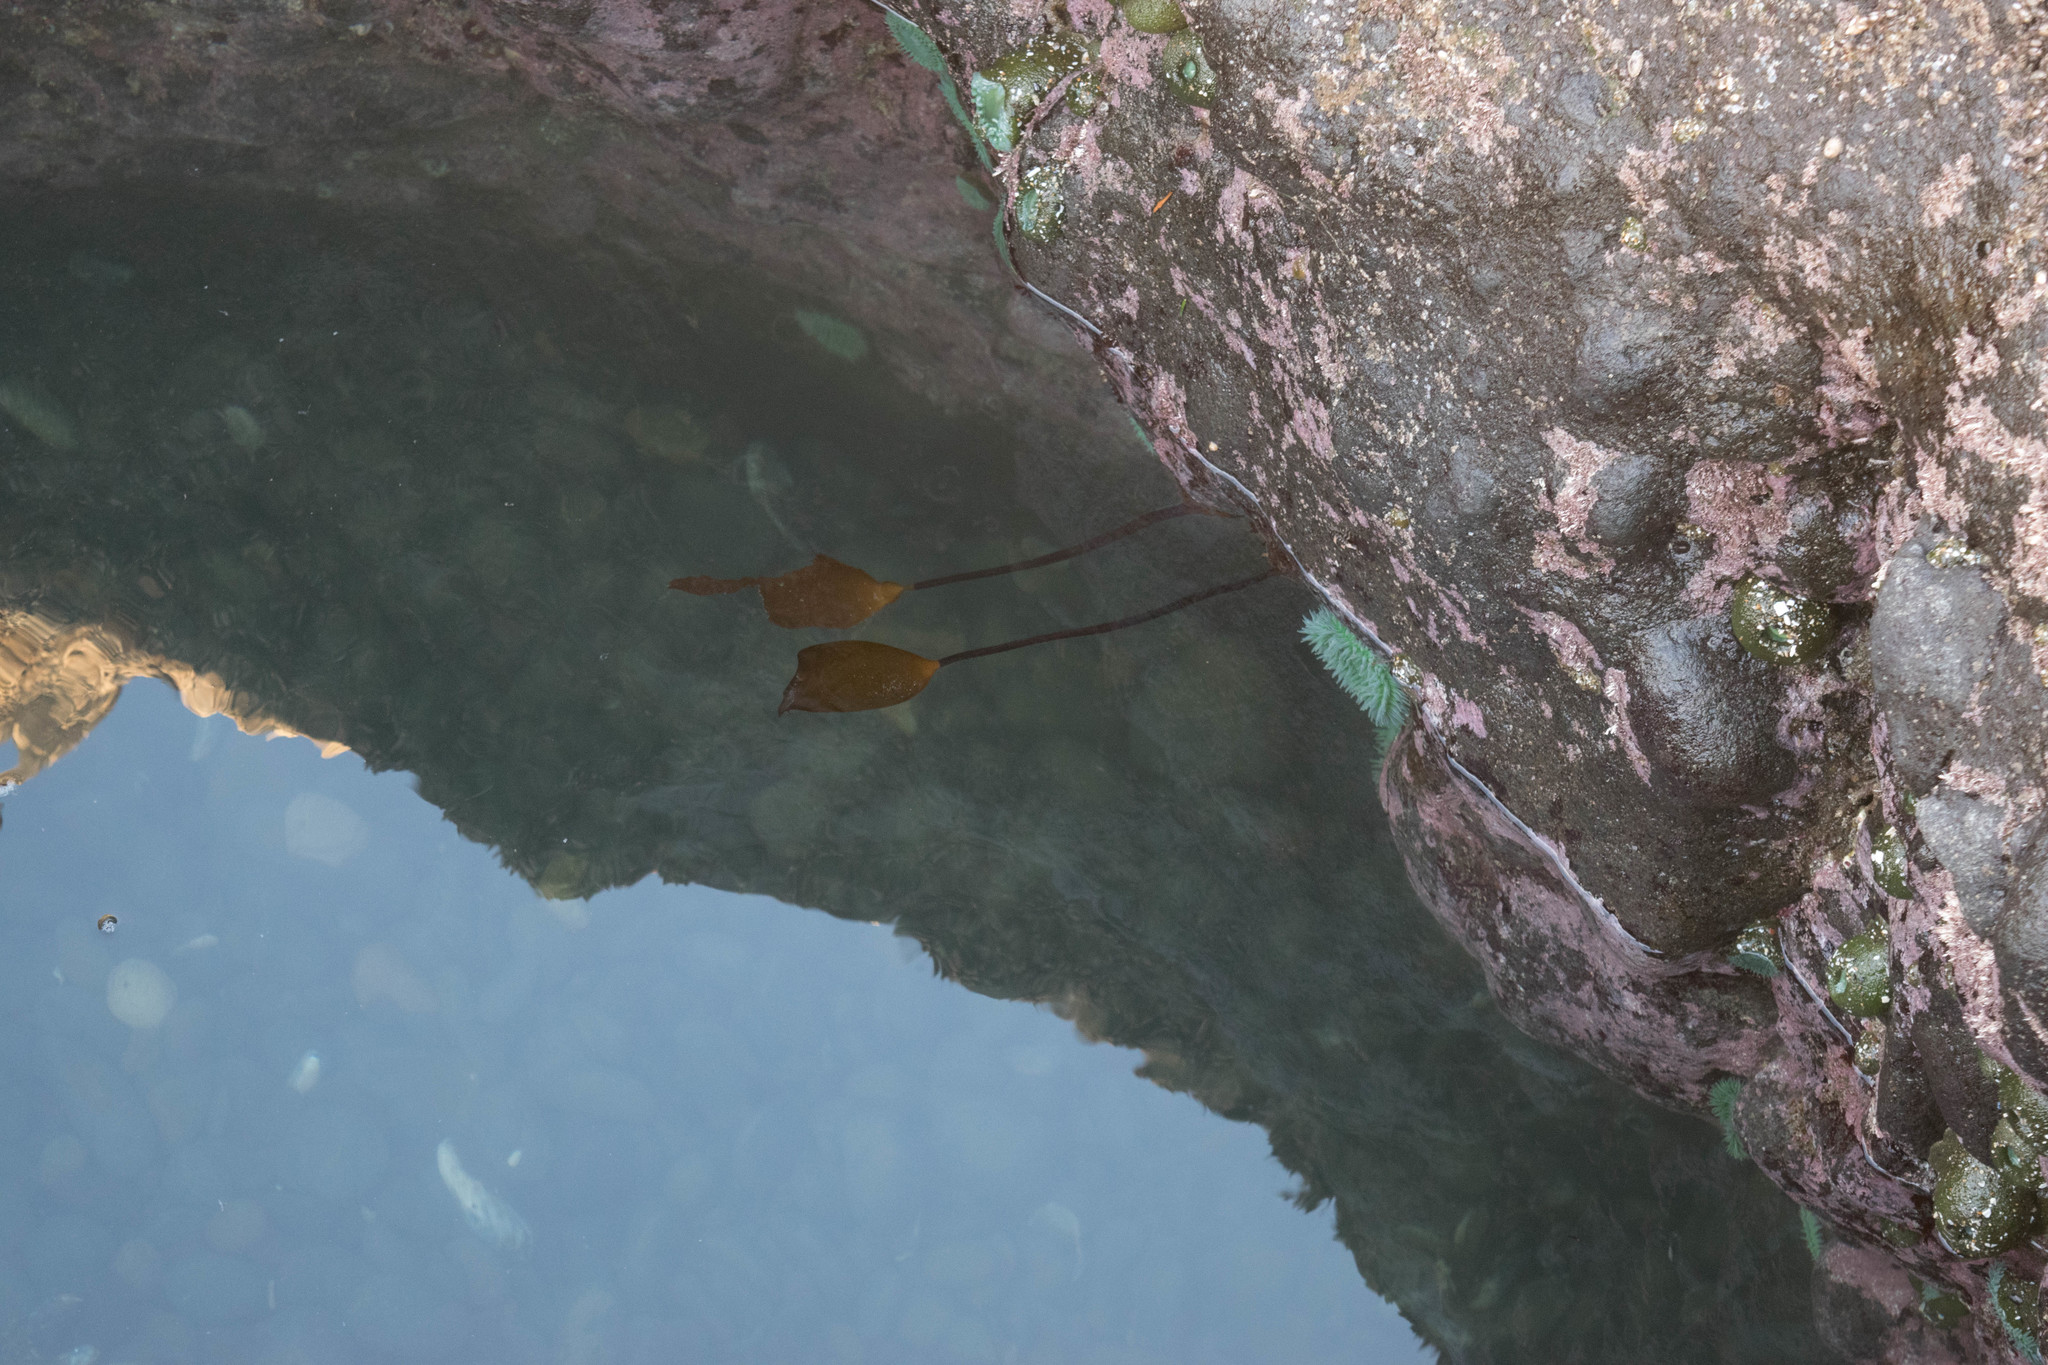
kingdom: Chromista
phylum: Ochrophyta
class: Phaeophyceae
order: Laminariales
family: Laminariaceae
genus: Laminaria
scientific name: Laminaria setchellii
